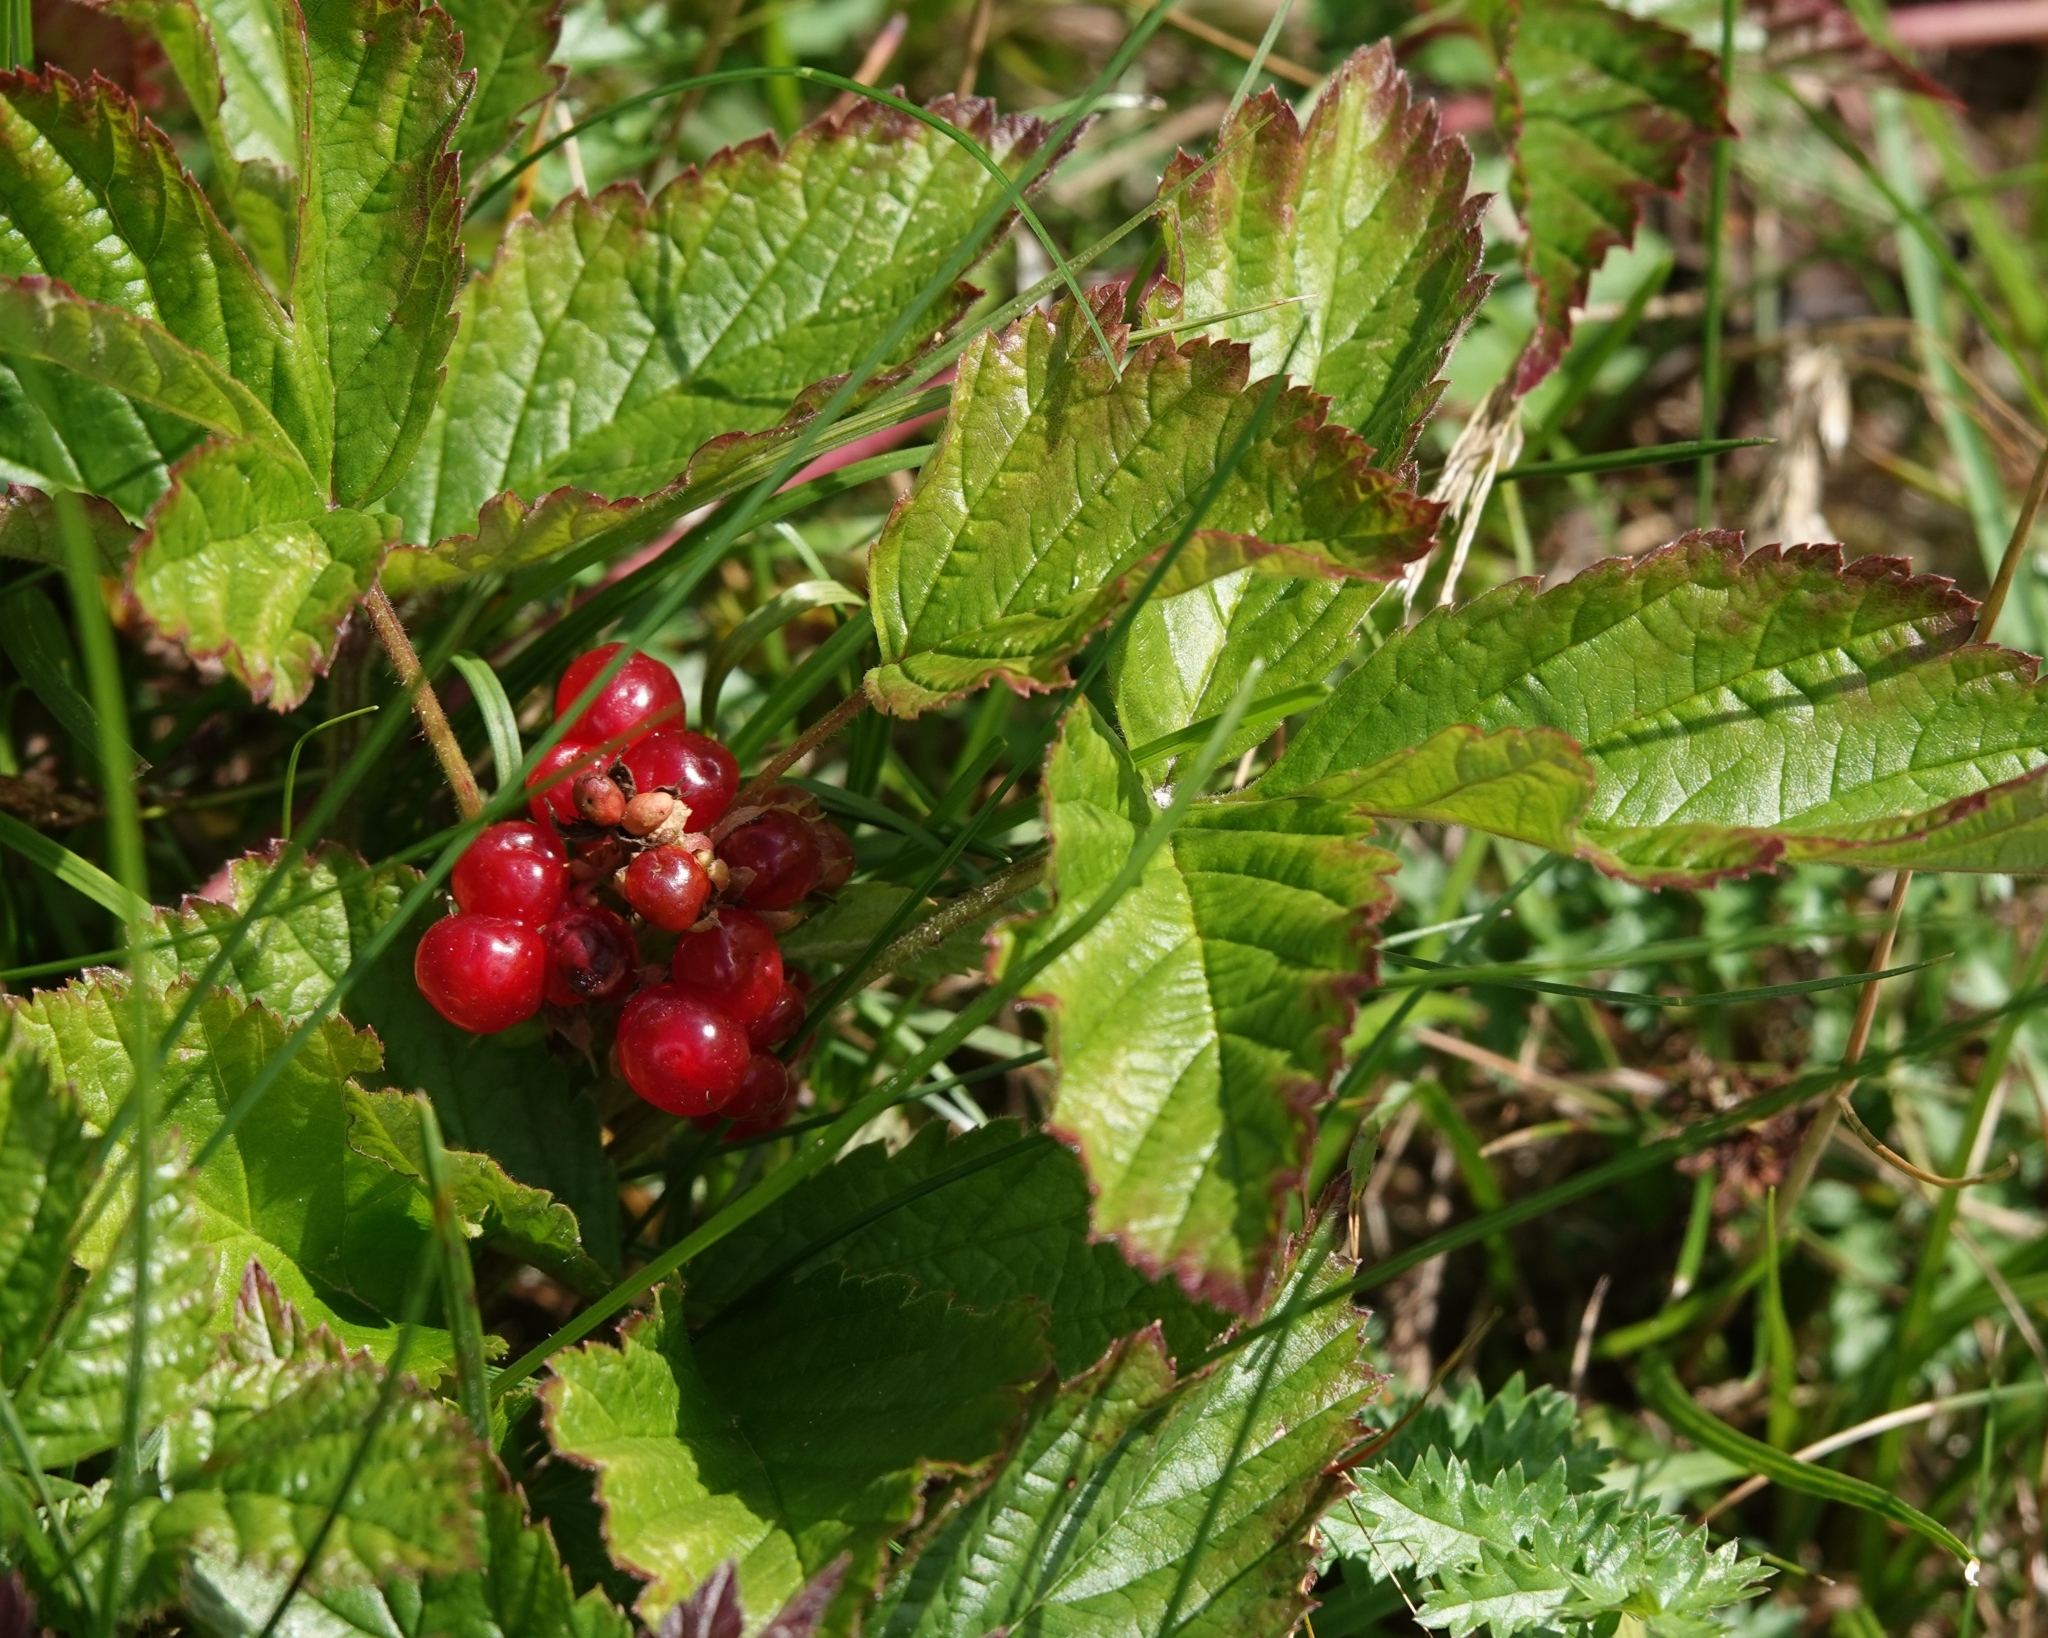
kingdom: Plantae
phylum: Tracheophyta
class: Magnoliopsida
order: Rosales
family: Rosaceae
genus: Rubus
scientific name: Rubus saxatilis
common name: Stone bramble
